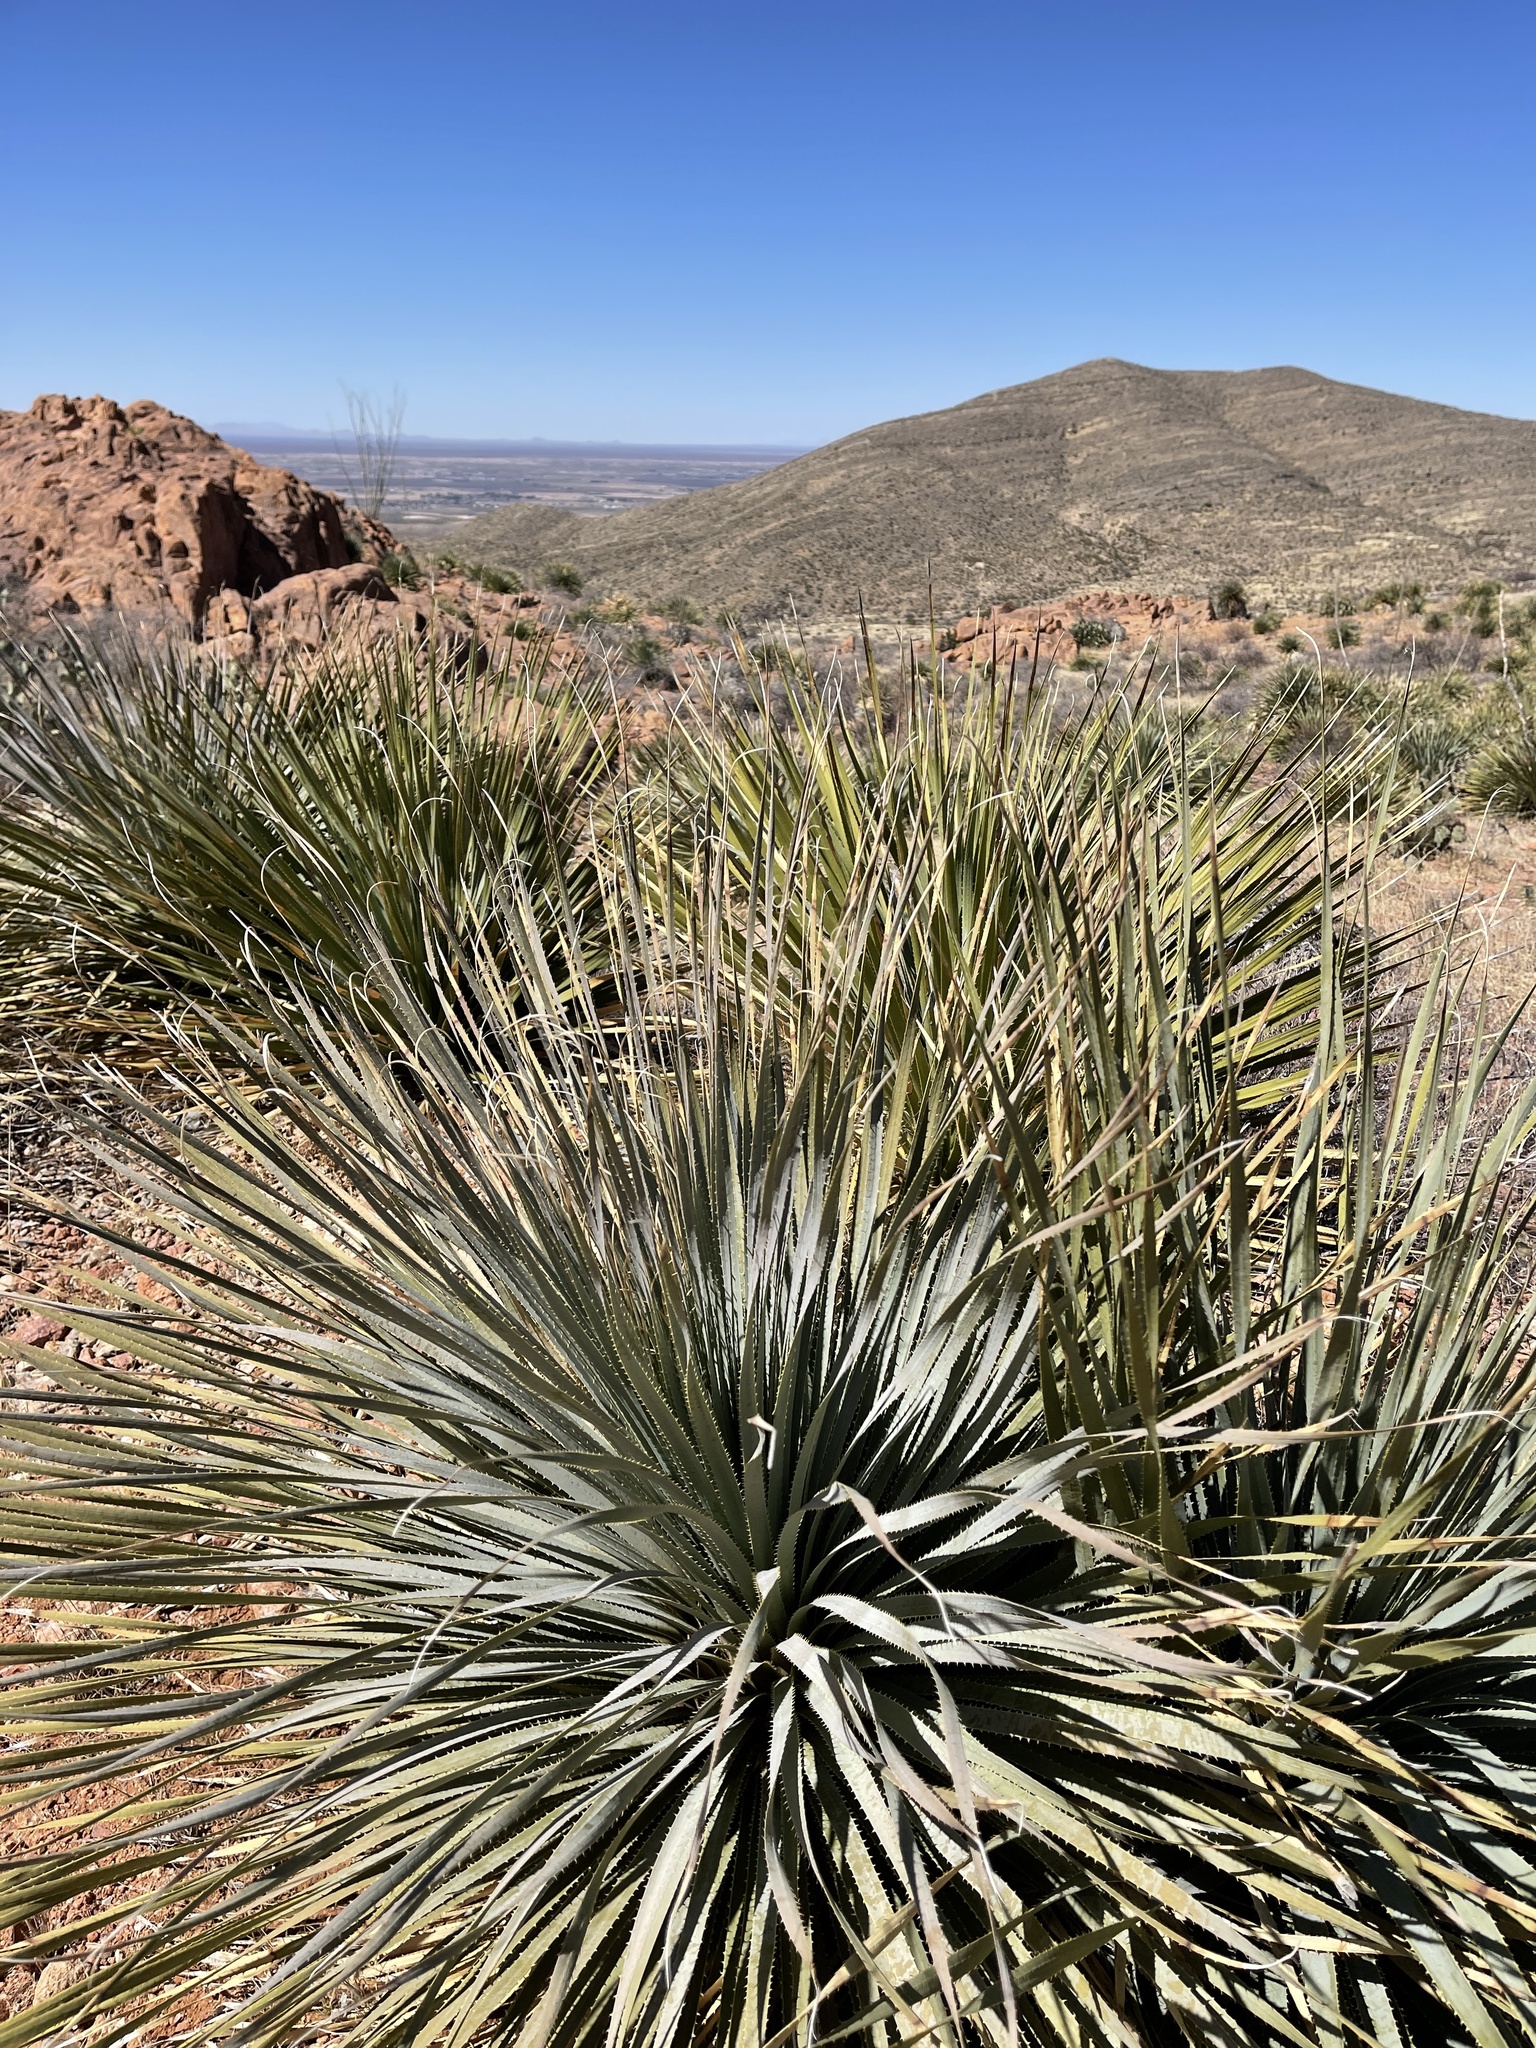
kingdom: Plantae
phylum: Tracheophyta
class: Liliopsida
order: Asparagales
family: Asparagaceae
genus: Dasylirion
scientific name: Dasylirion wheeleri
